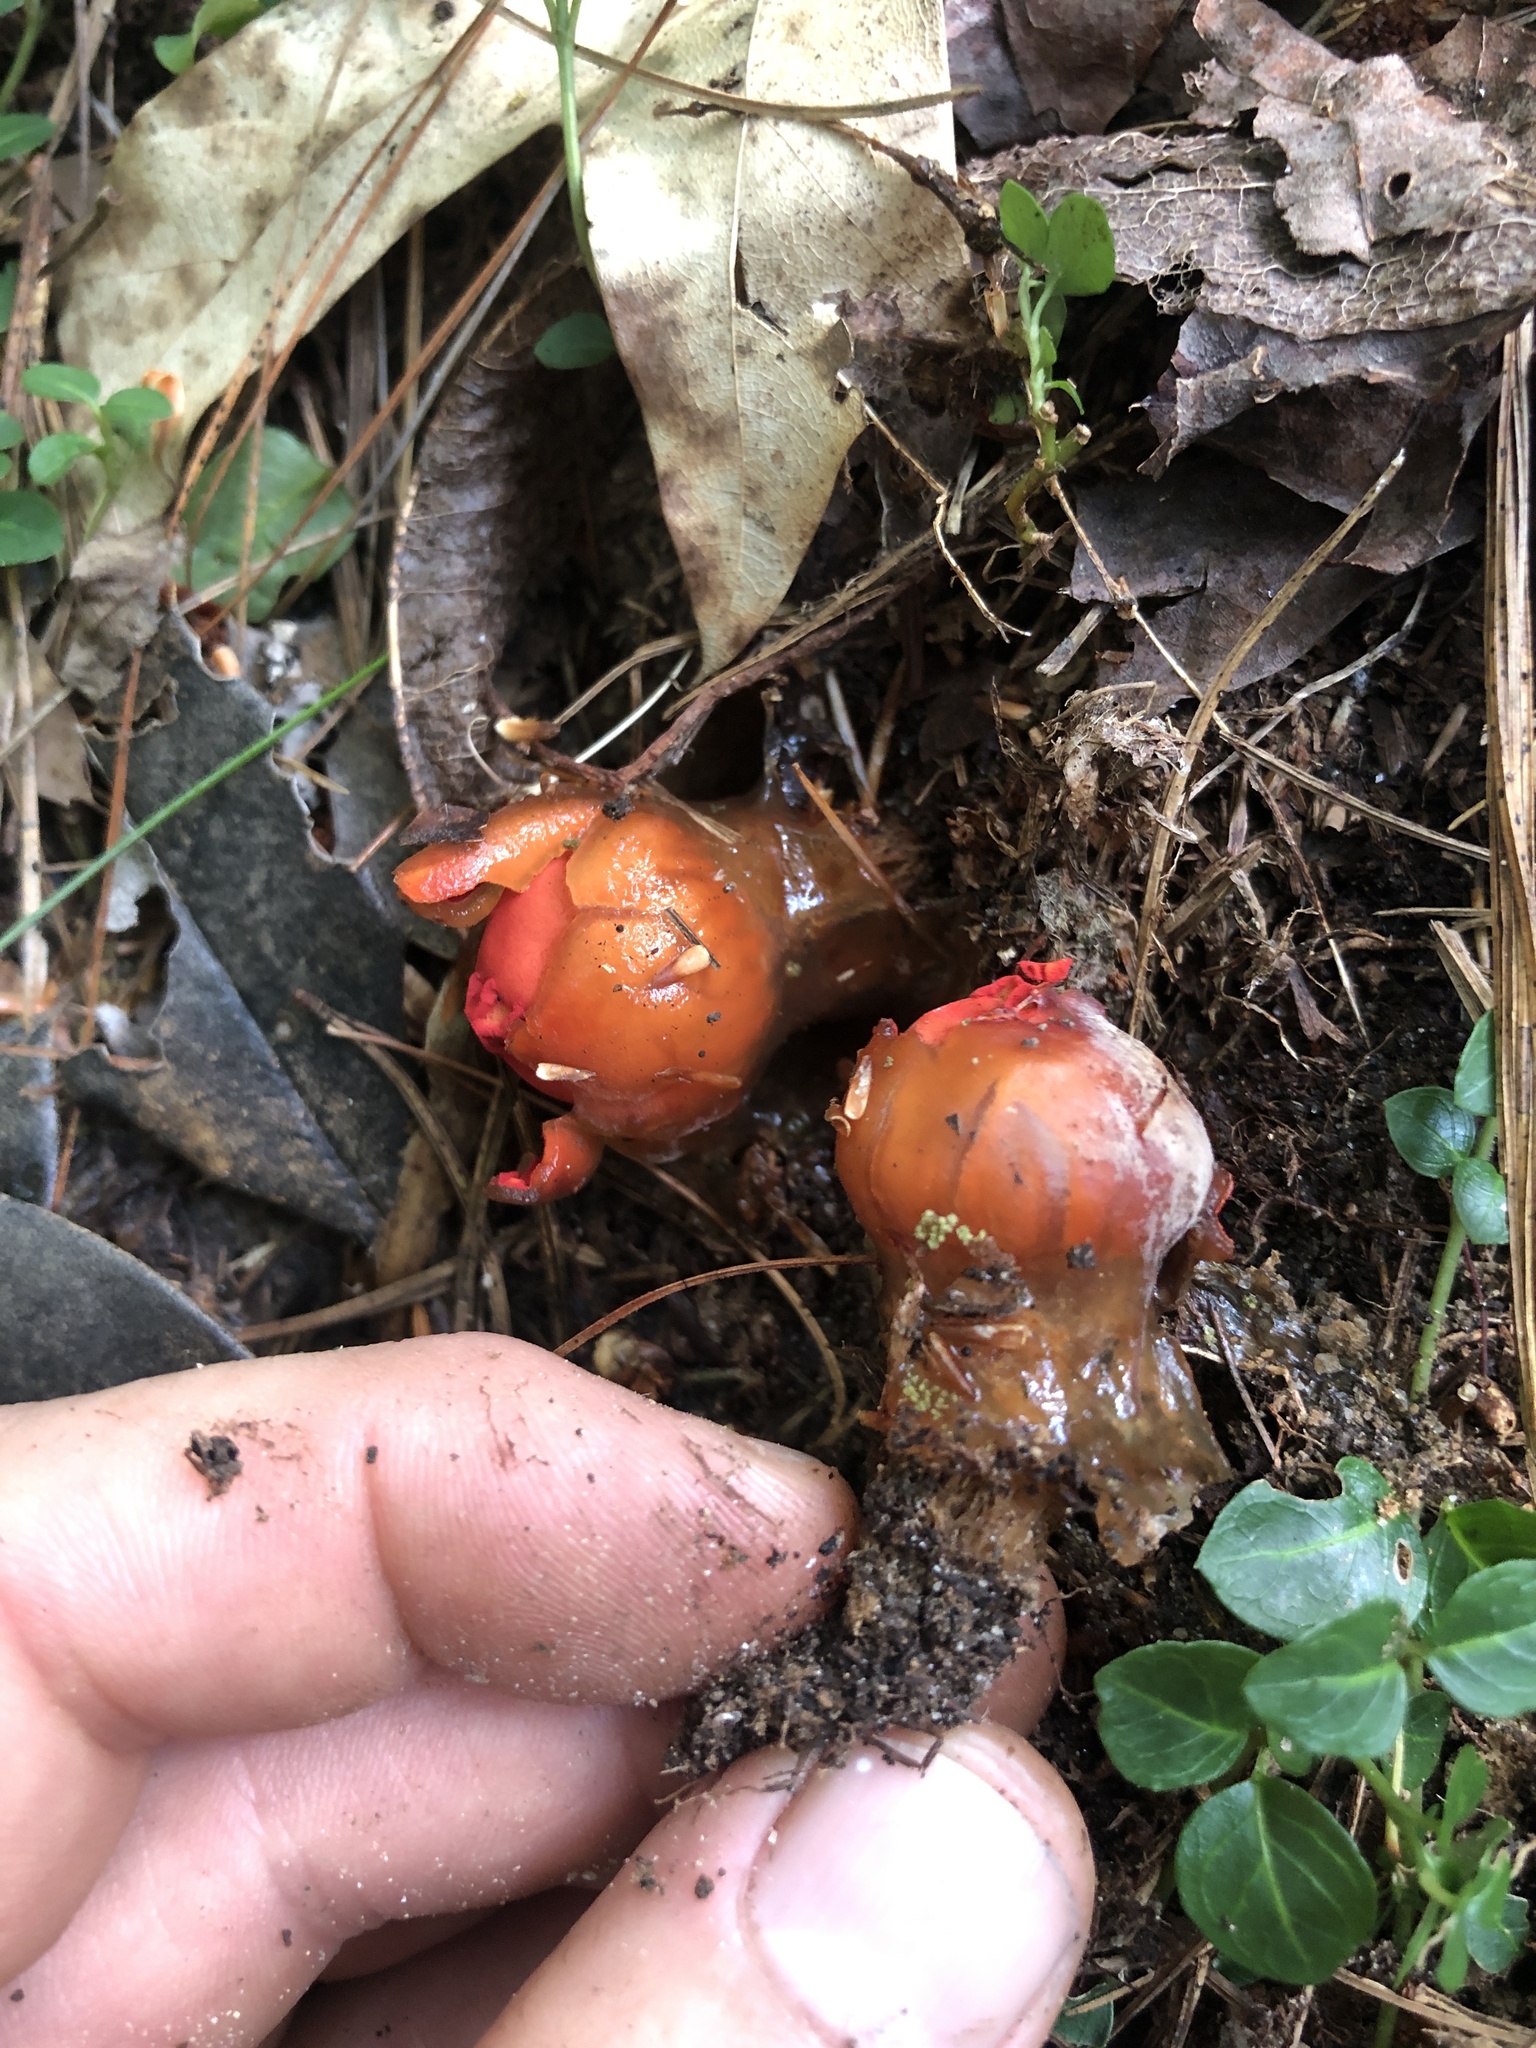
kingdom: Fungi
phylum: Basidiomycota
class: Agaricomycetes
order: Boletales
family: Calostomataceae
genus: Calostoma
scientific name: Calostoma cinnabarinum
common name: Stalked puffball-in-aspic
